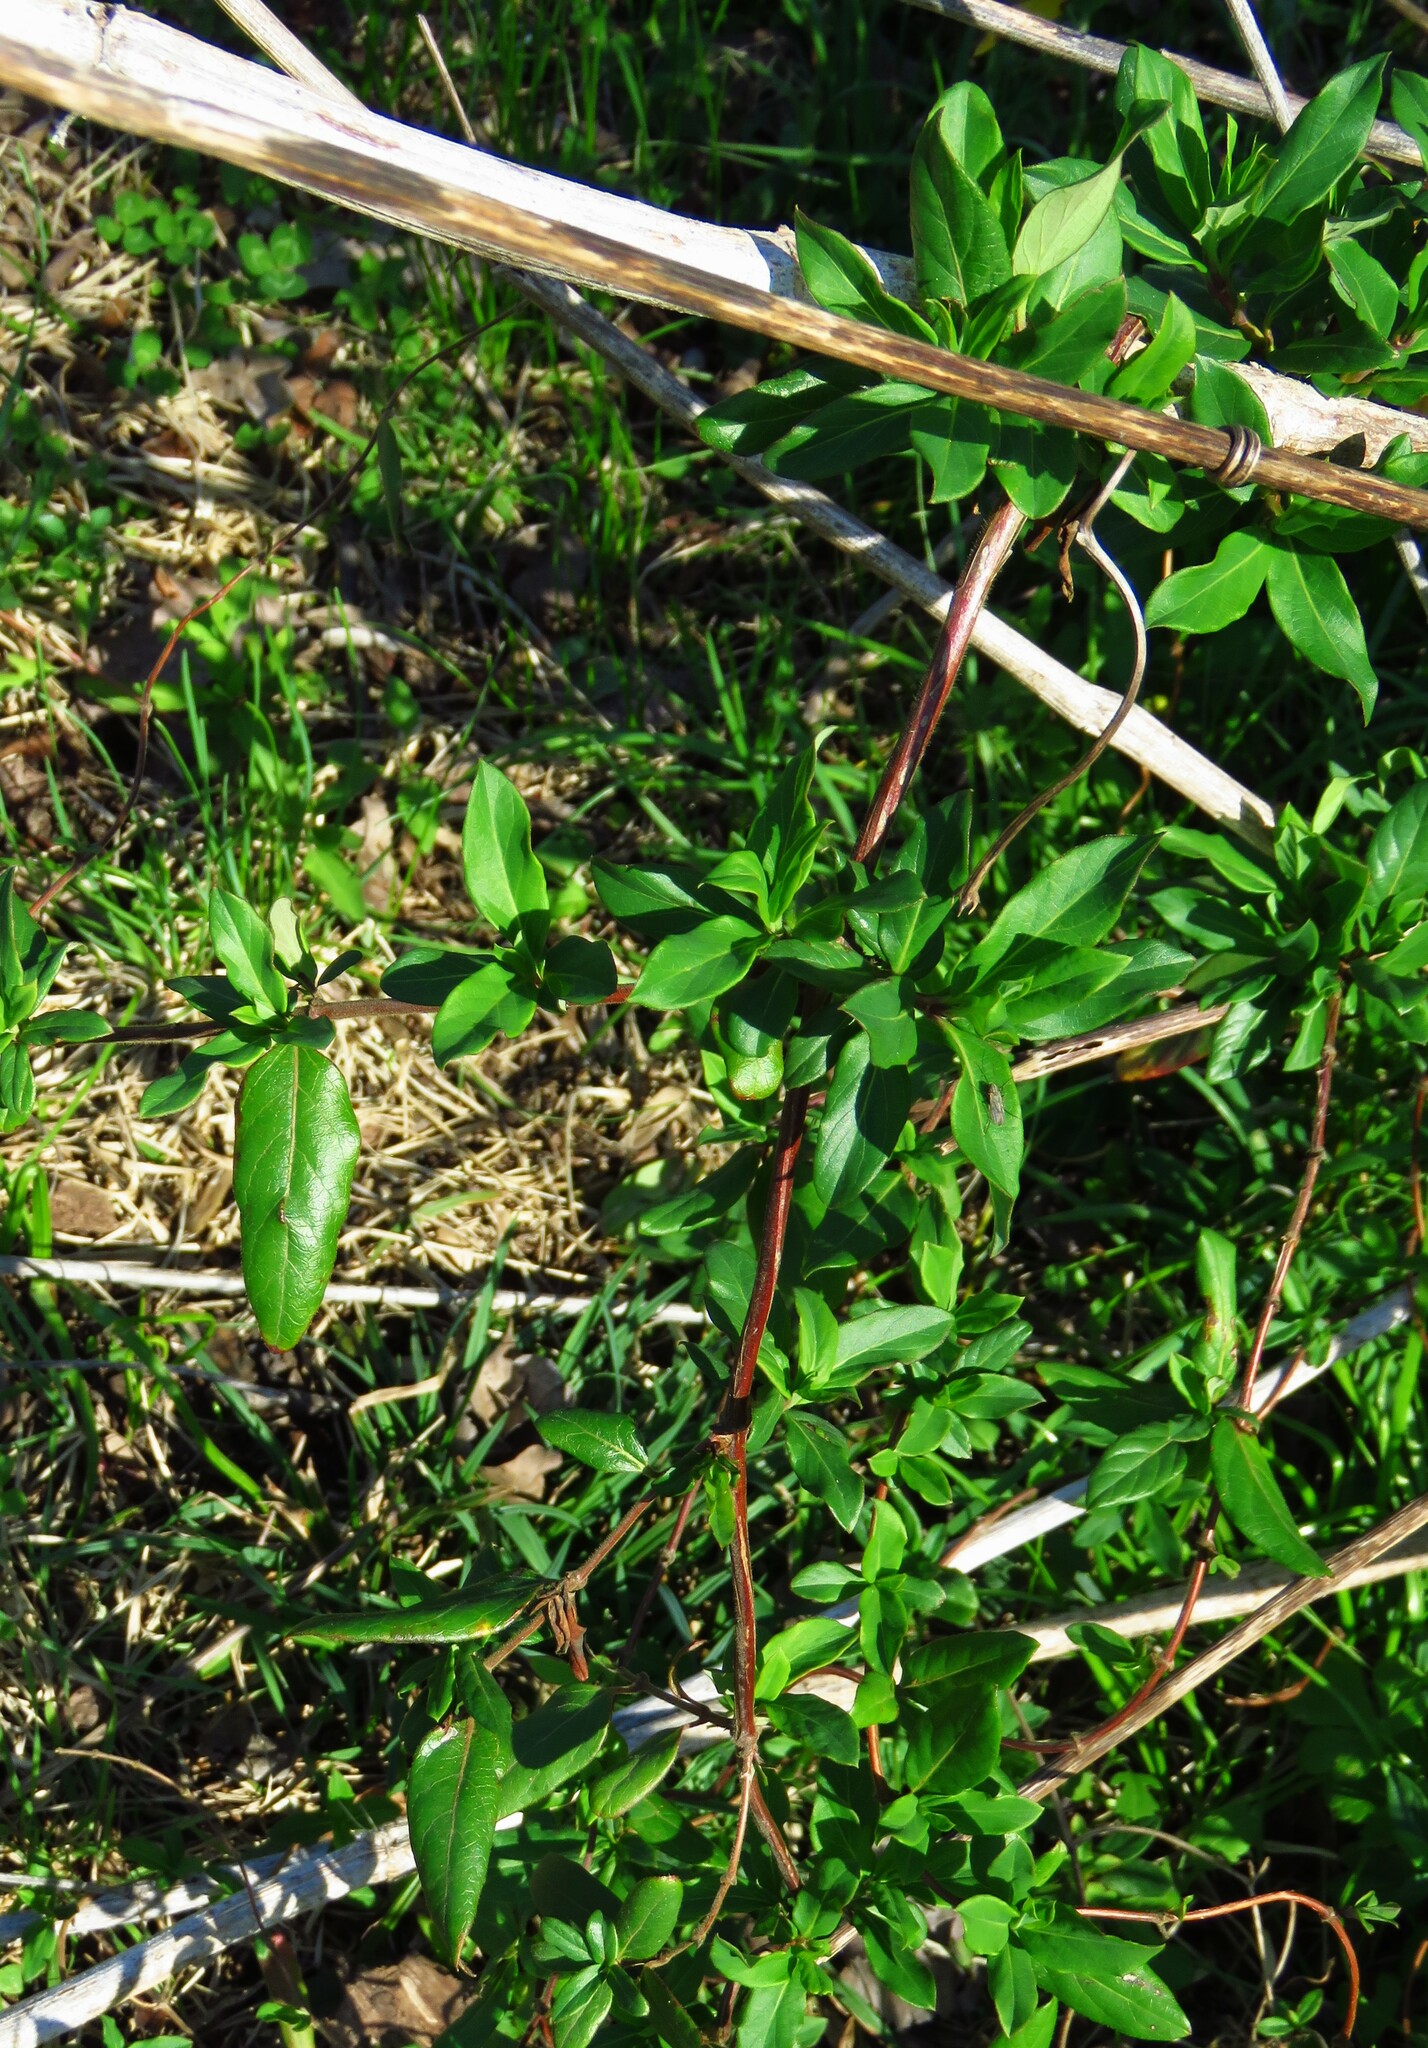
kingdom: Plantae
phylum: Tracheophyta
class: Magnoliopsida
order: Dipsacales
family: Caprifoliaceae
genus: Lonicera
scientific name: Lonicera japonica
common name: Japanese honeysuckle
